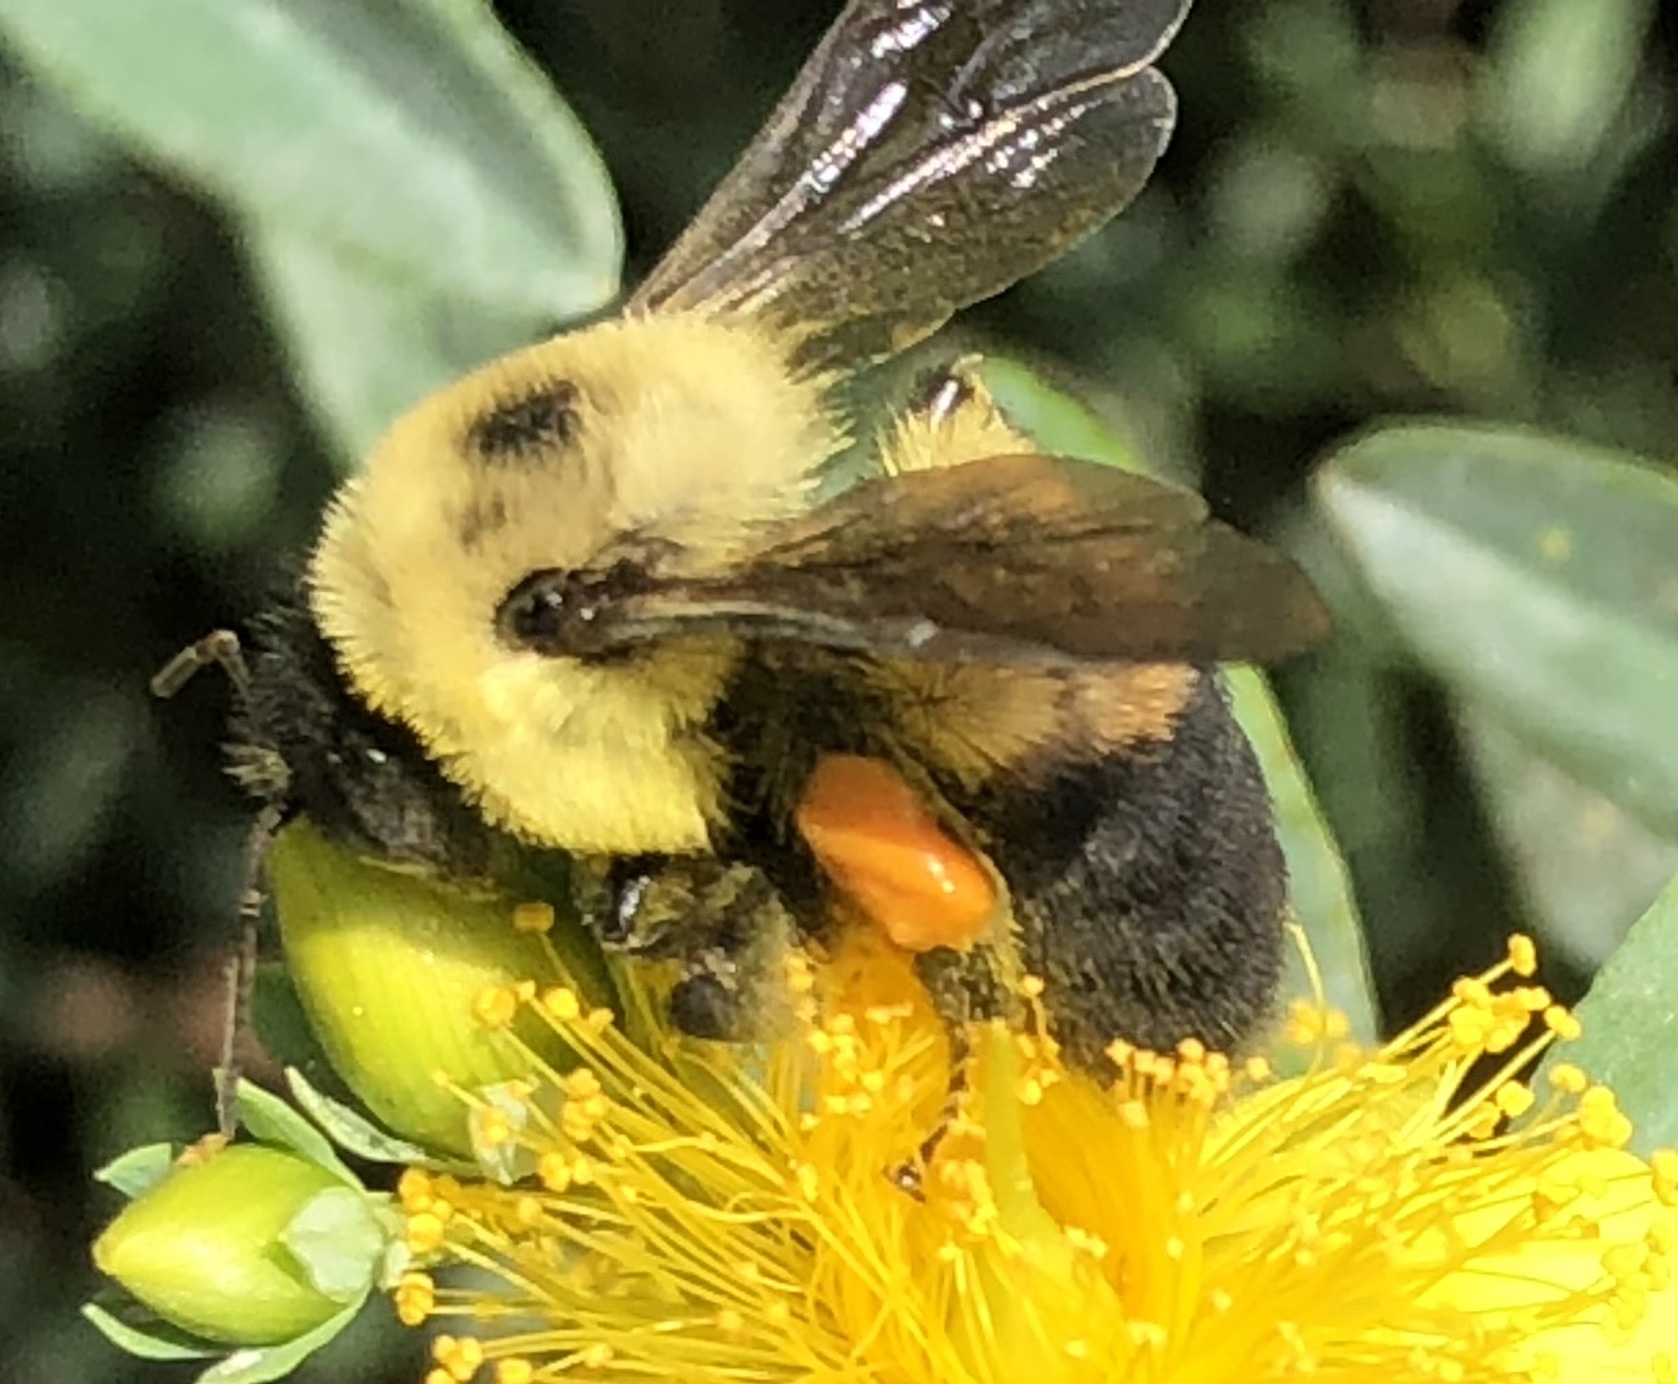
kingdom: Animalia
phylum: Arthropoda
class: Insecta
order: Hymenoptera
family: Apidae
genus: Bombus
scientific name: Bombus griseocollis
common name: Brown-belted bumble bee
